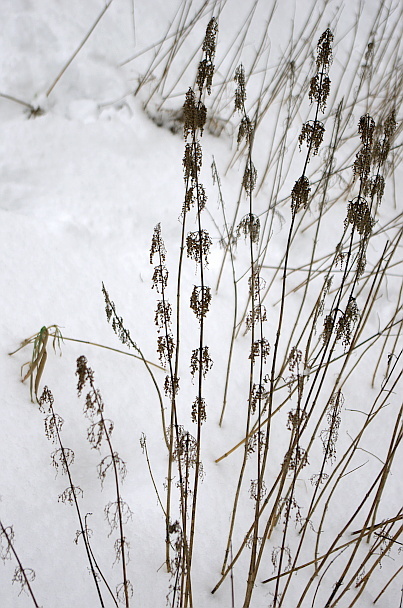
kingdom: Plantae
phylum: Tracheophyta
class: Magnoliopsida
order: Rosales
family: Urticaceae
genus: Urtica
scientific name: Urtica dioica
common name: Common nettle
